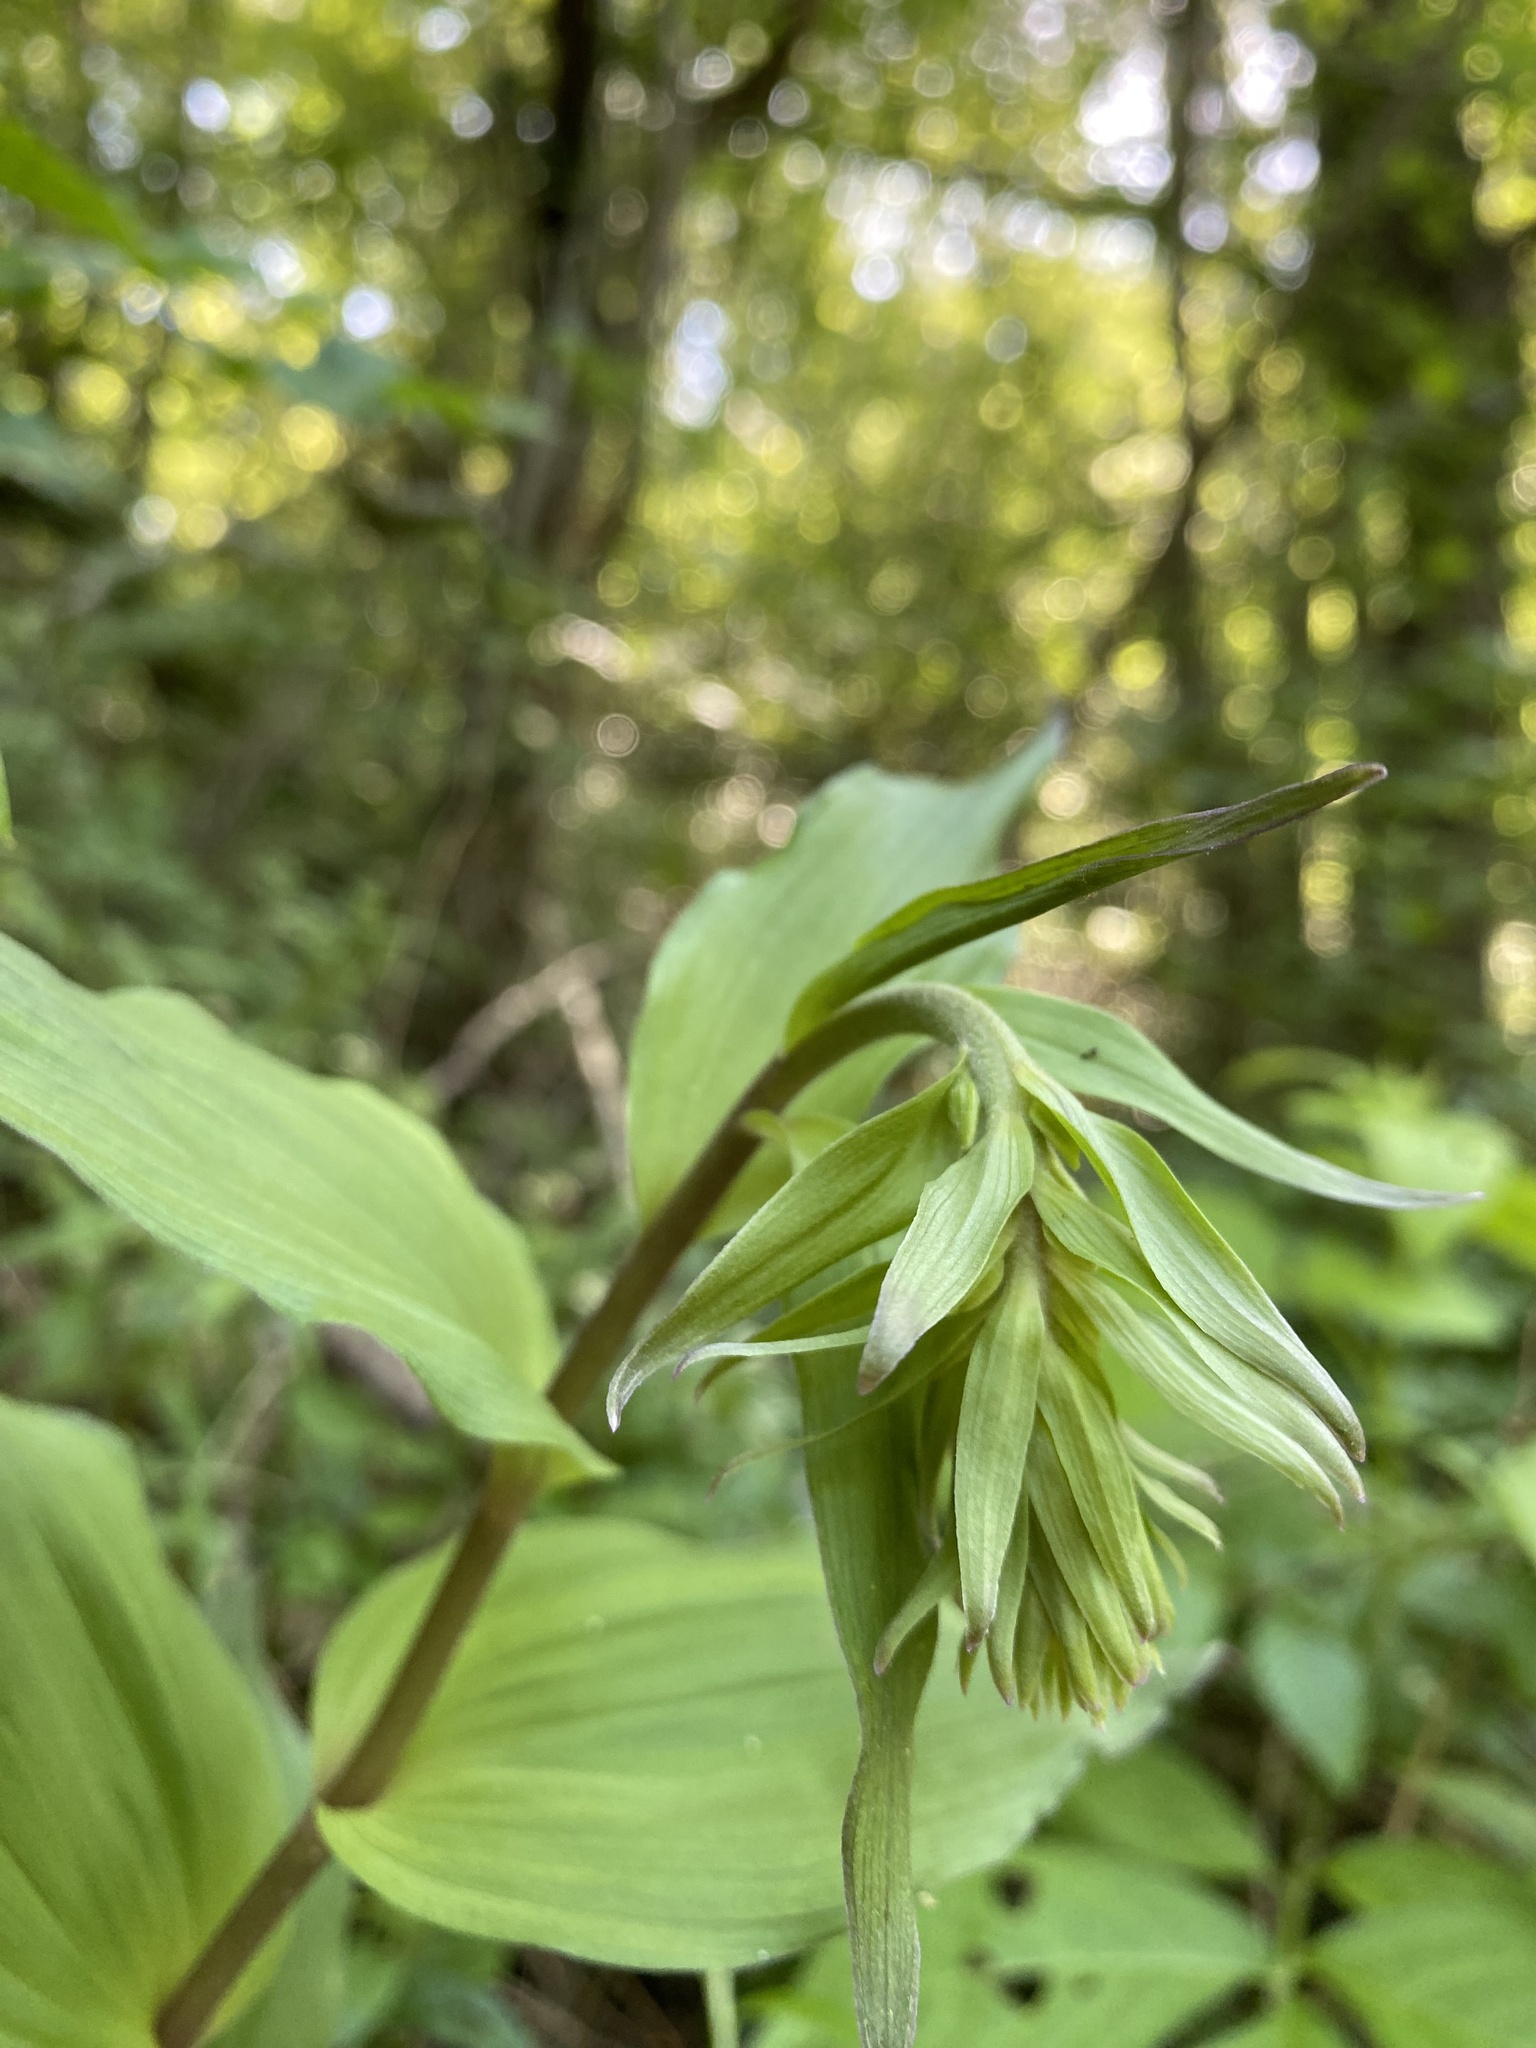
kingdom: Plantae
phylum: Tracheophyta
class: Liliopsida
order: Asparagales
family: Orchidaceae
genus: Epipactis
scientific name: Epipactis helleborine
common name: Broad-leaved helleborine
